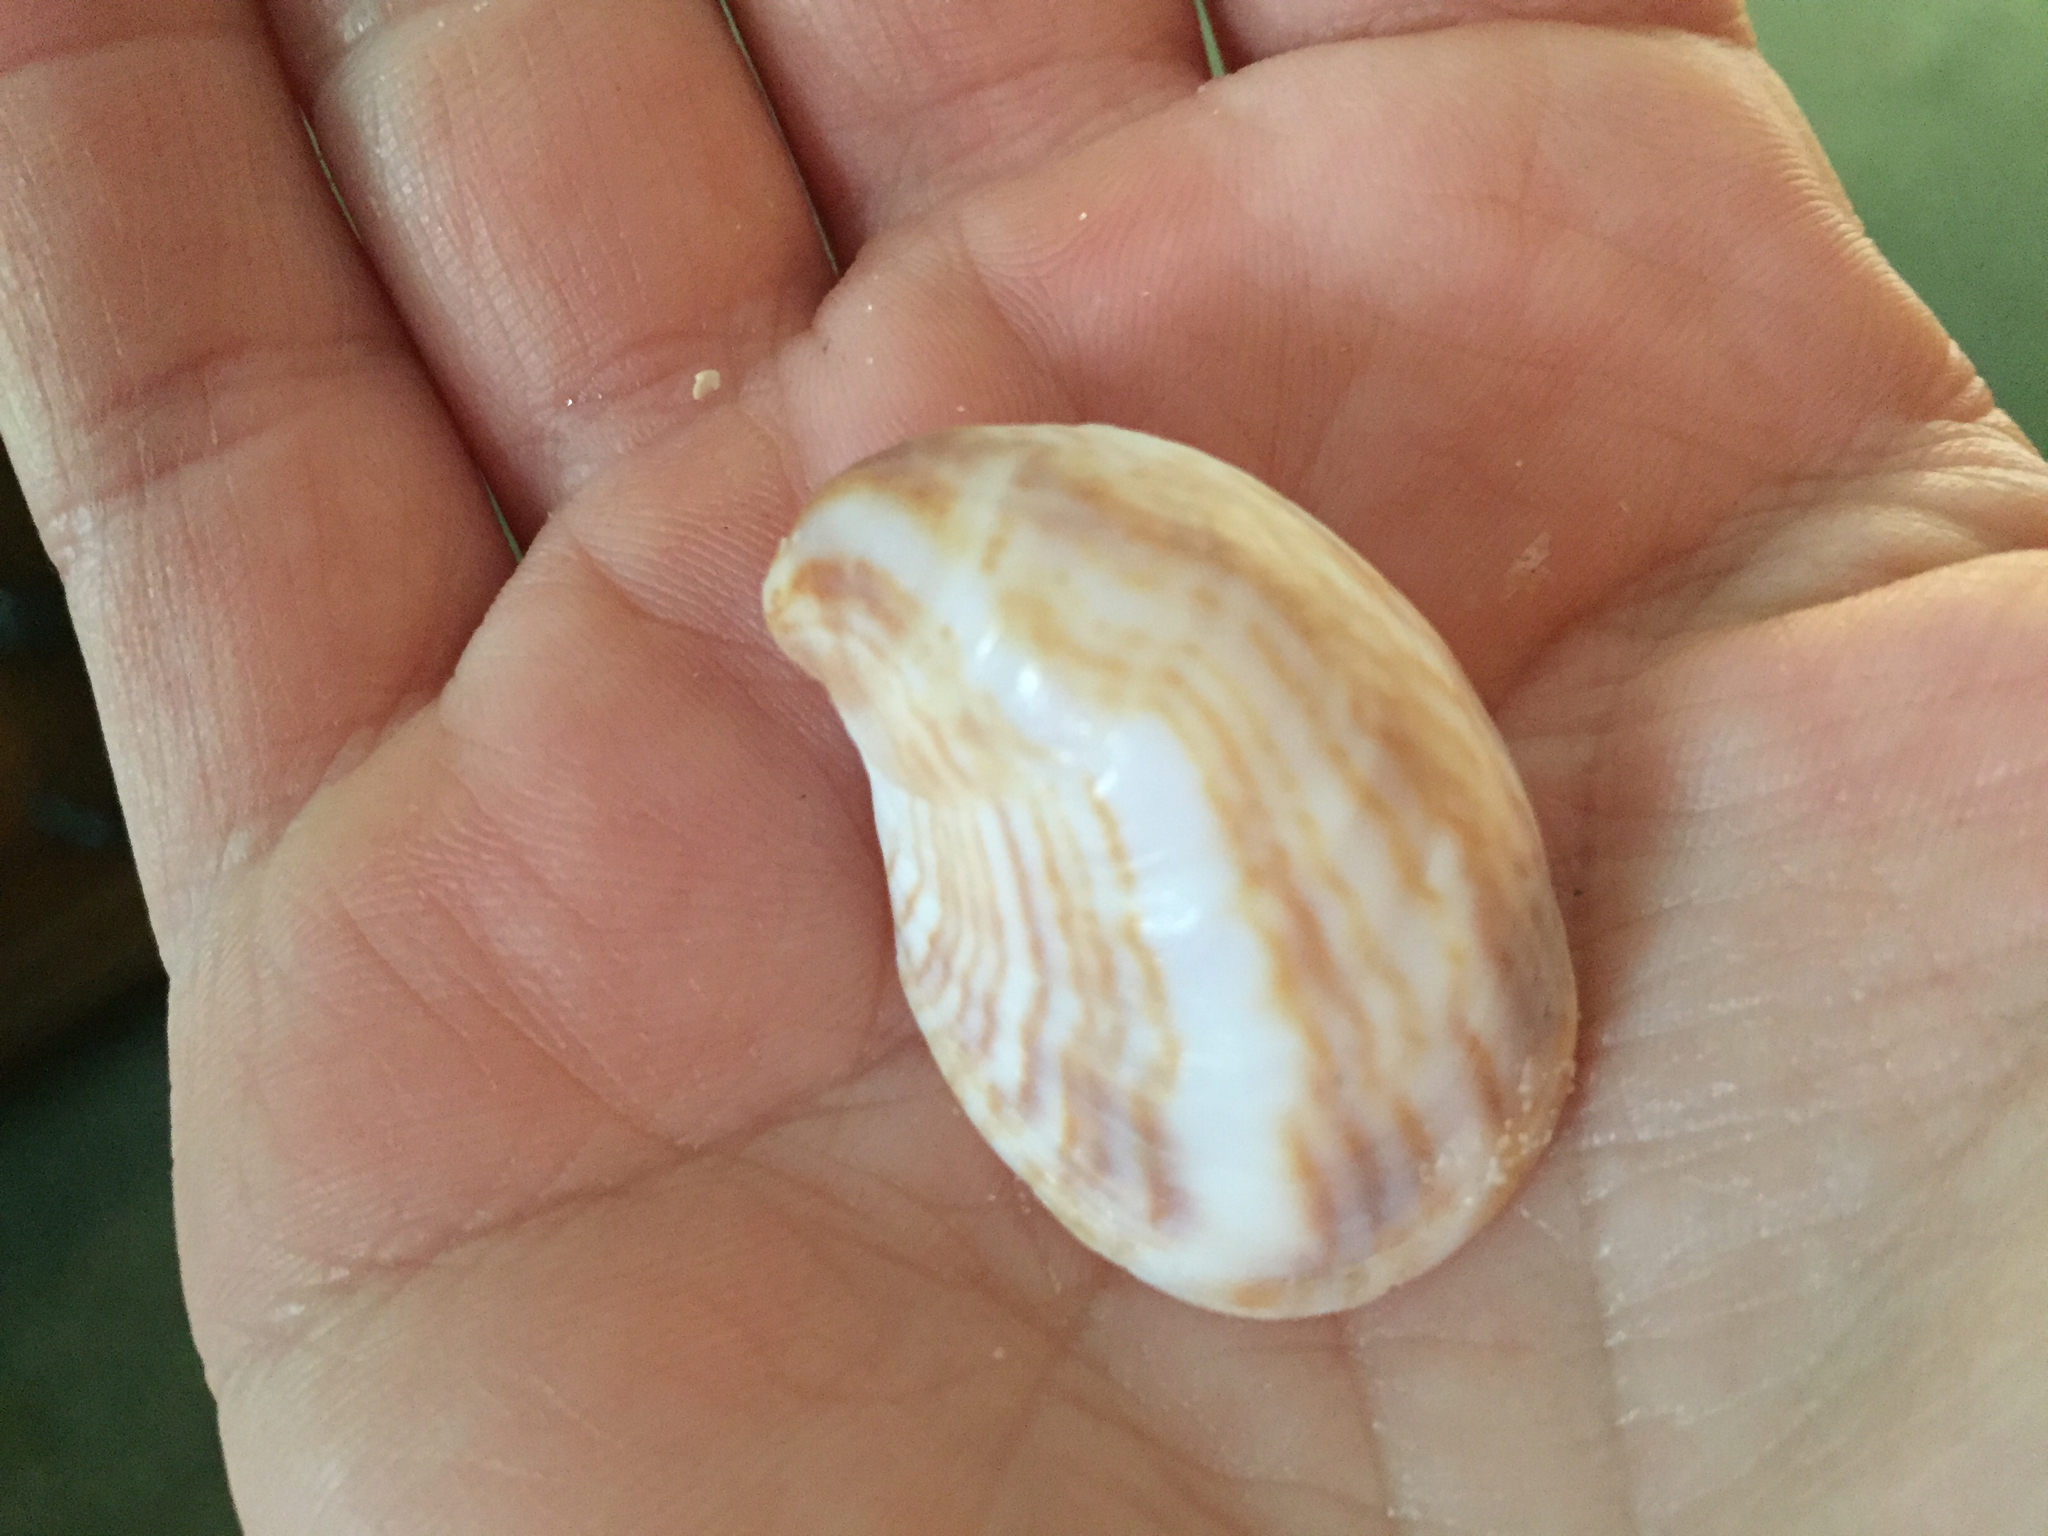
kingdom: Animalia
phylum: Mollusca
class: Gastropoda
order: Littorinimorpha
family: Calyptraeidae
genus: Crepidula
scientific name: Crepidula fornicata
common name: Slipper limpet
